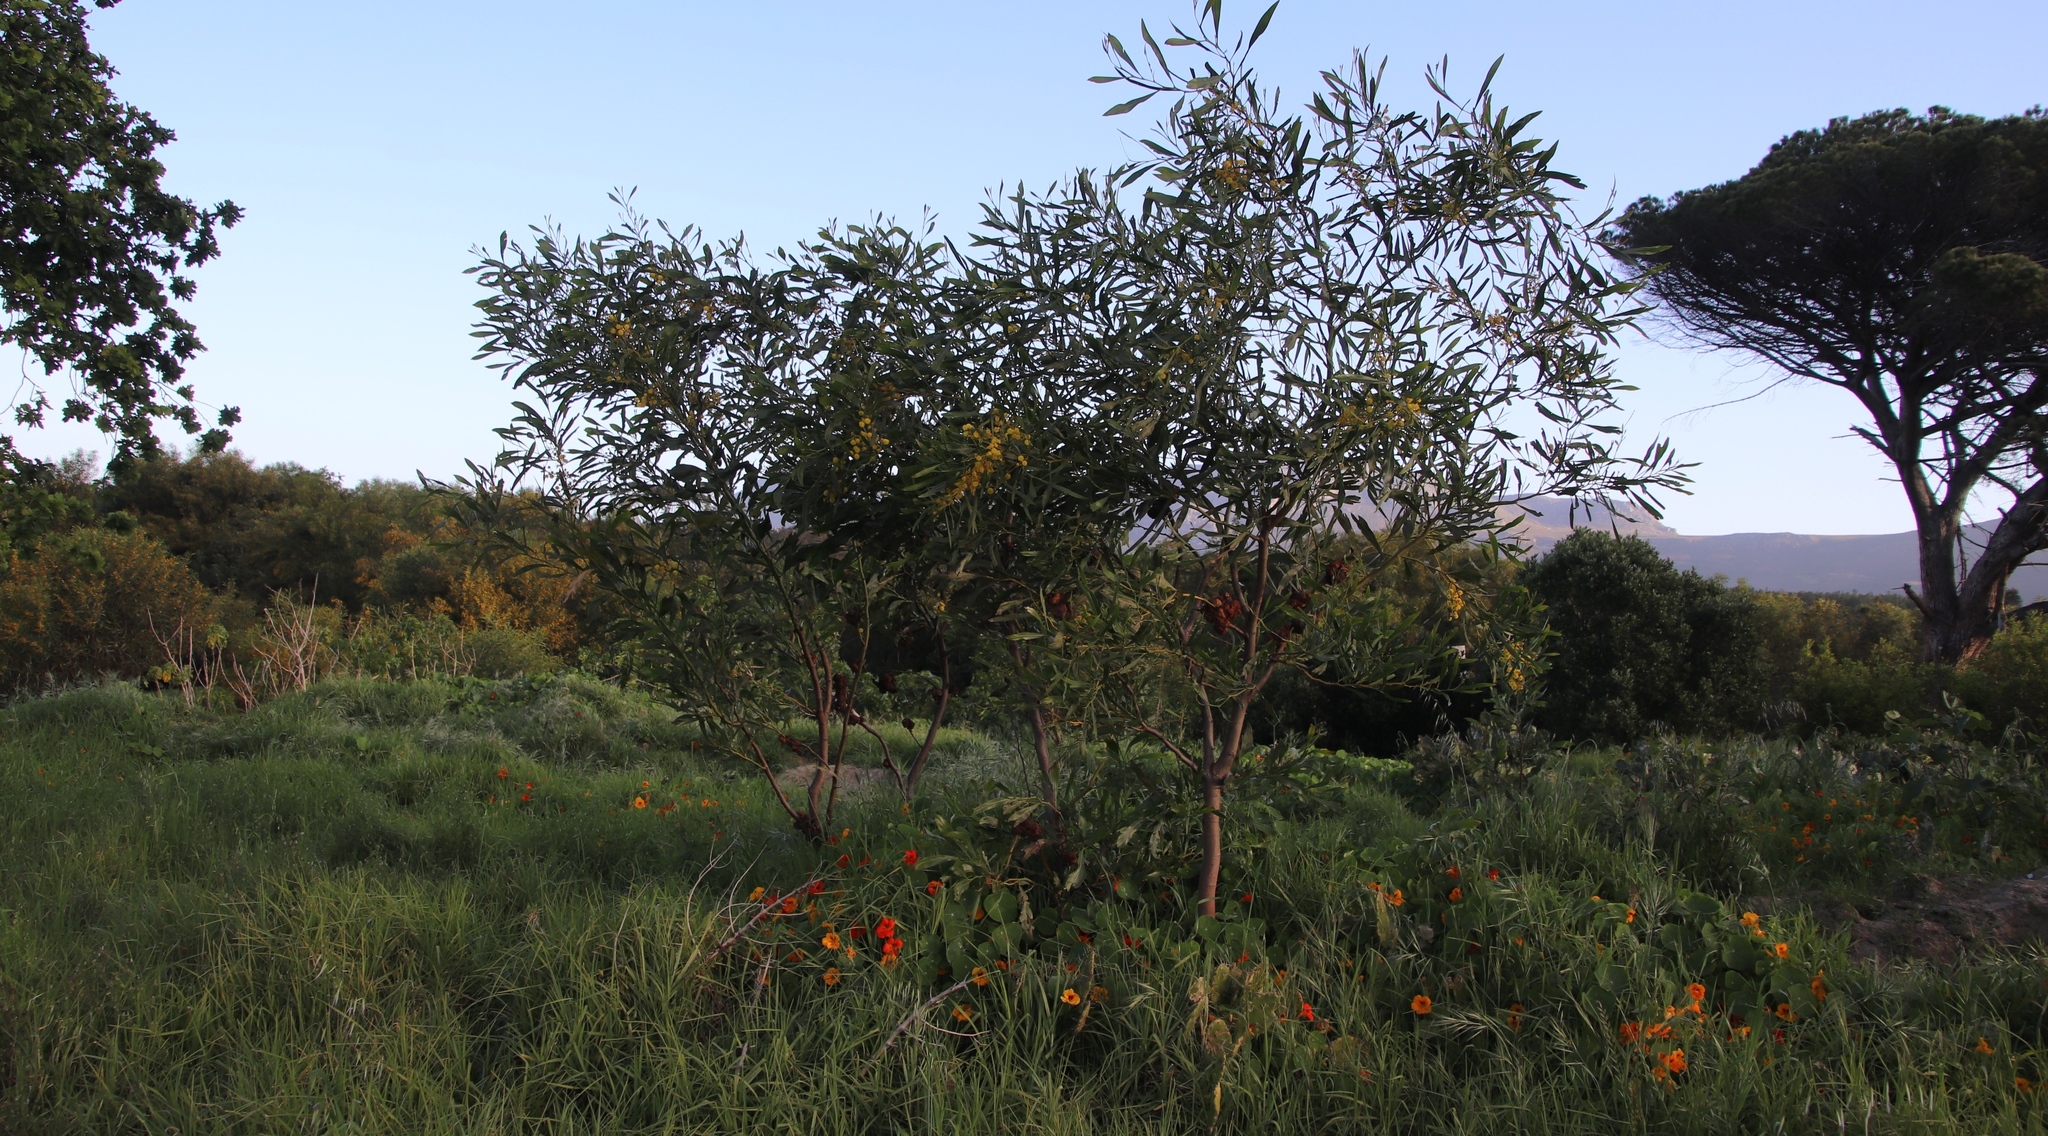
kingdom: Plantae
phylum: Tracheophyta
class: Magnoliopsida
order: Fabales
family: Fabaceae
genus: Acacia
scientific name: Acacia saligna
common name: Orange wattle
